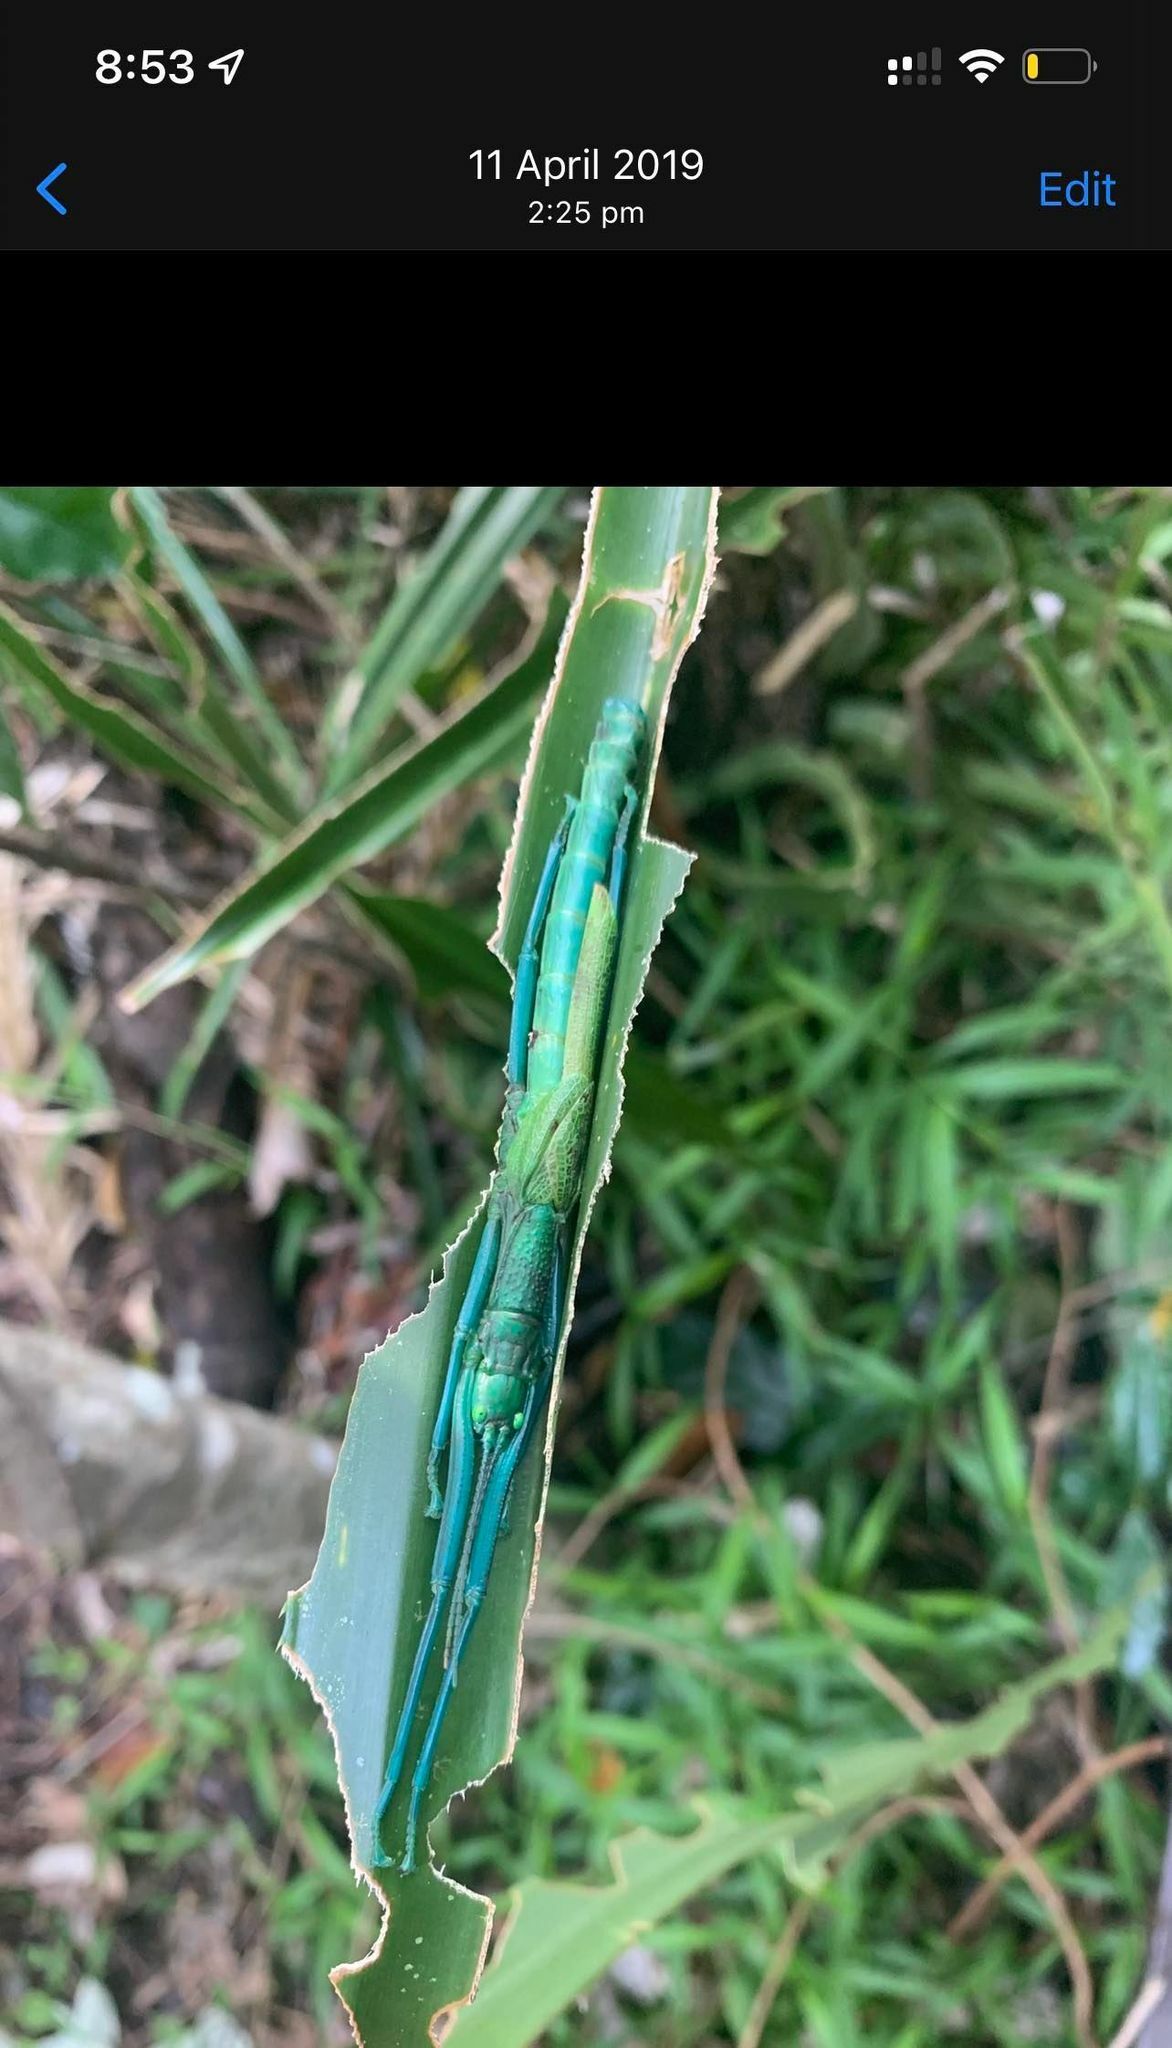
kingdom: Animalia
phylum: Arthropoda
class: Insecta
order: Phasmida
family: Phasmatidae
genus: Megacrania
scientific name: Megacrania batesii
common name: Peppermint stick-insect
